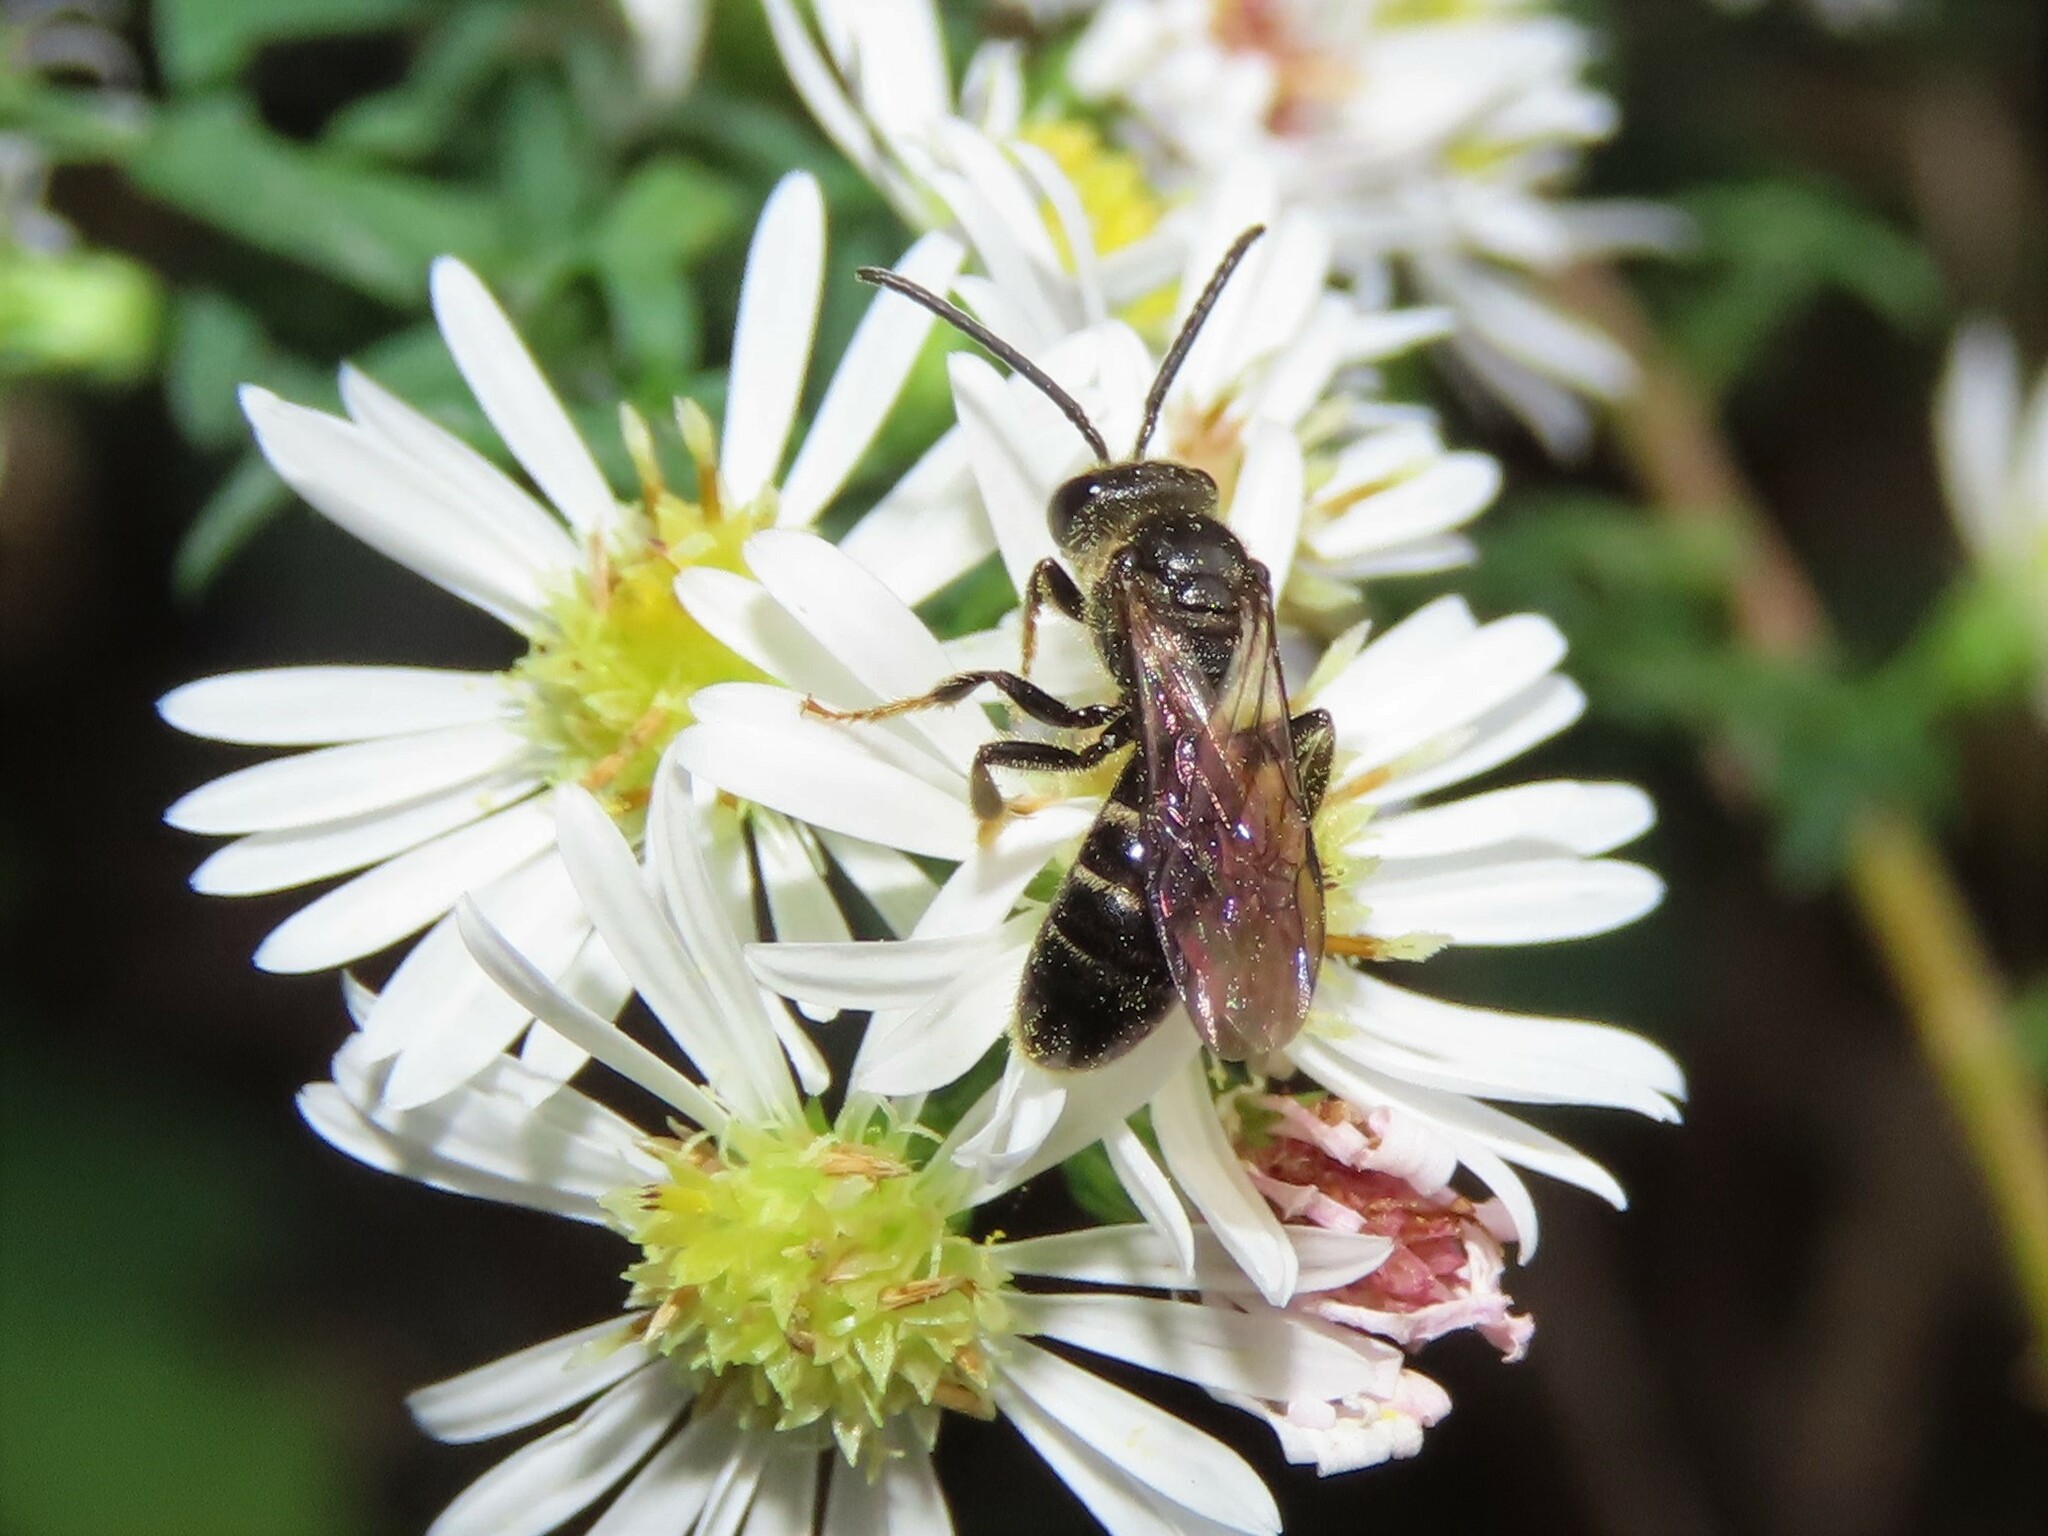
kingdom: Animalia
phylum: Arthropoda
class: Insecta
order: Hymenoptera
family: Halictidae
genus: Lasioglossum
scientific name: Lasioglossum fuscipenne
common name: Brown-winged sweat bee
